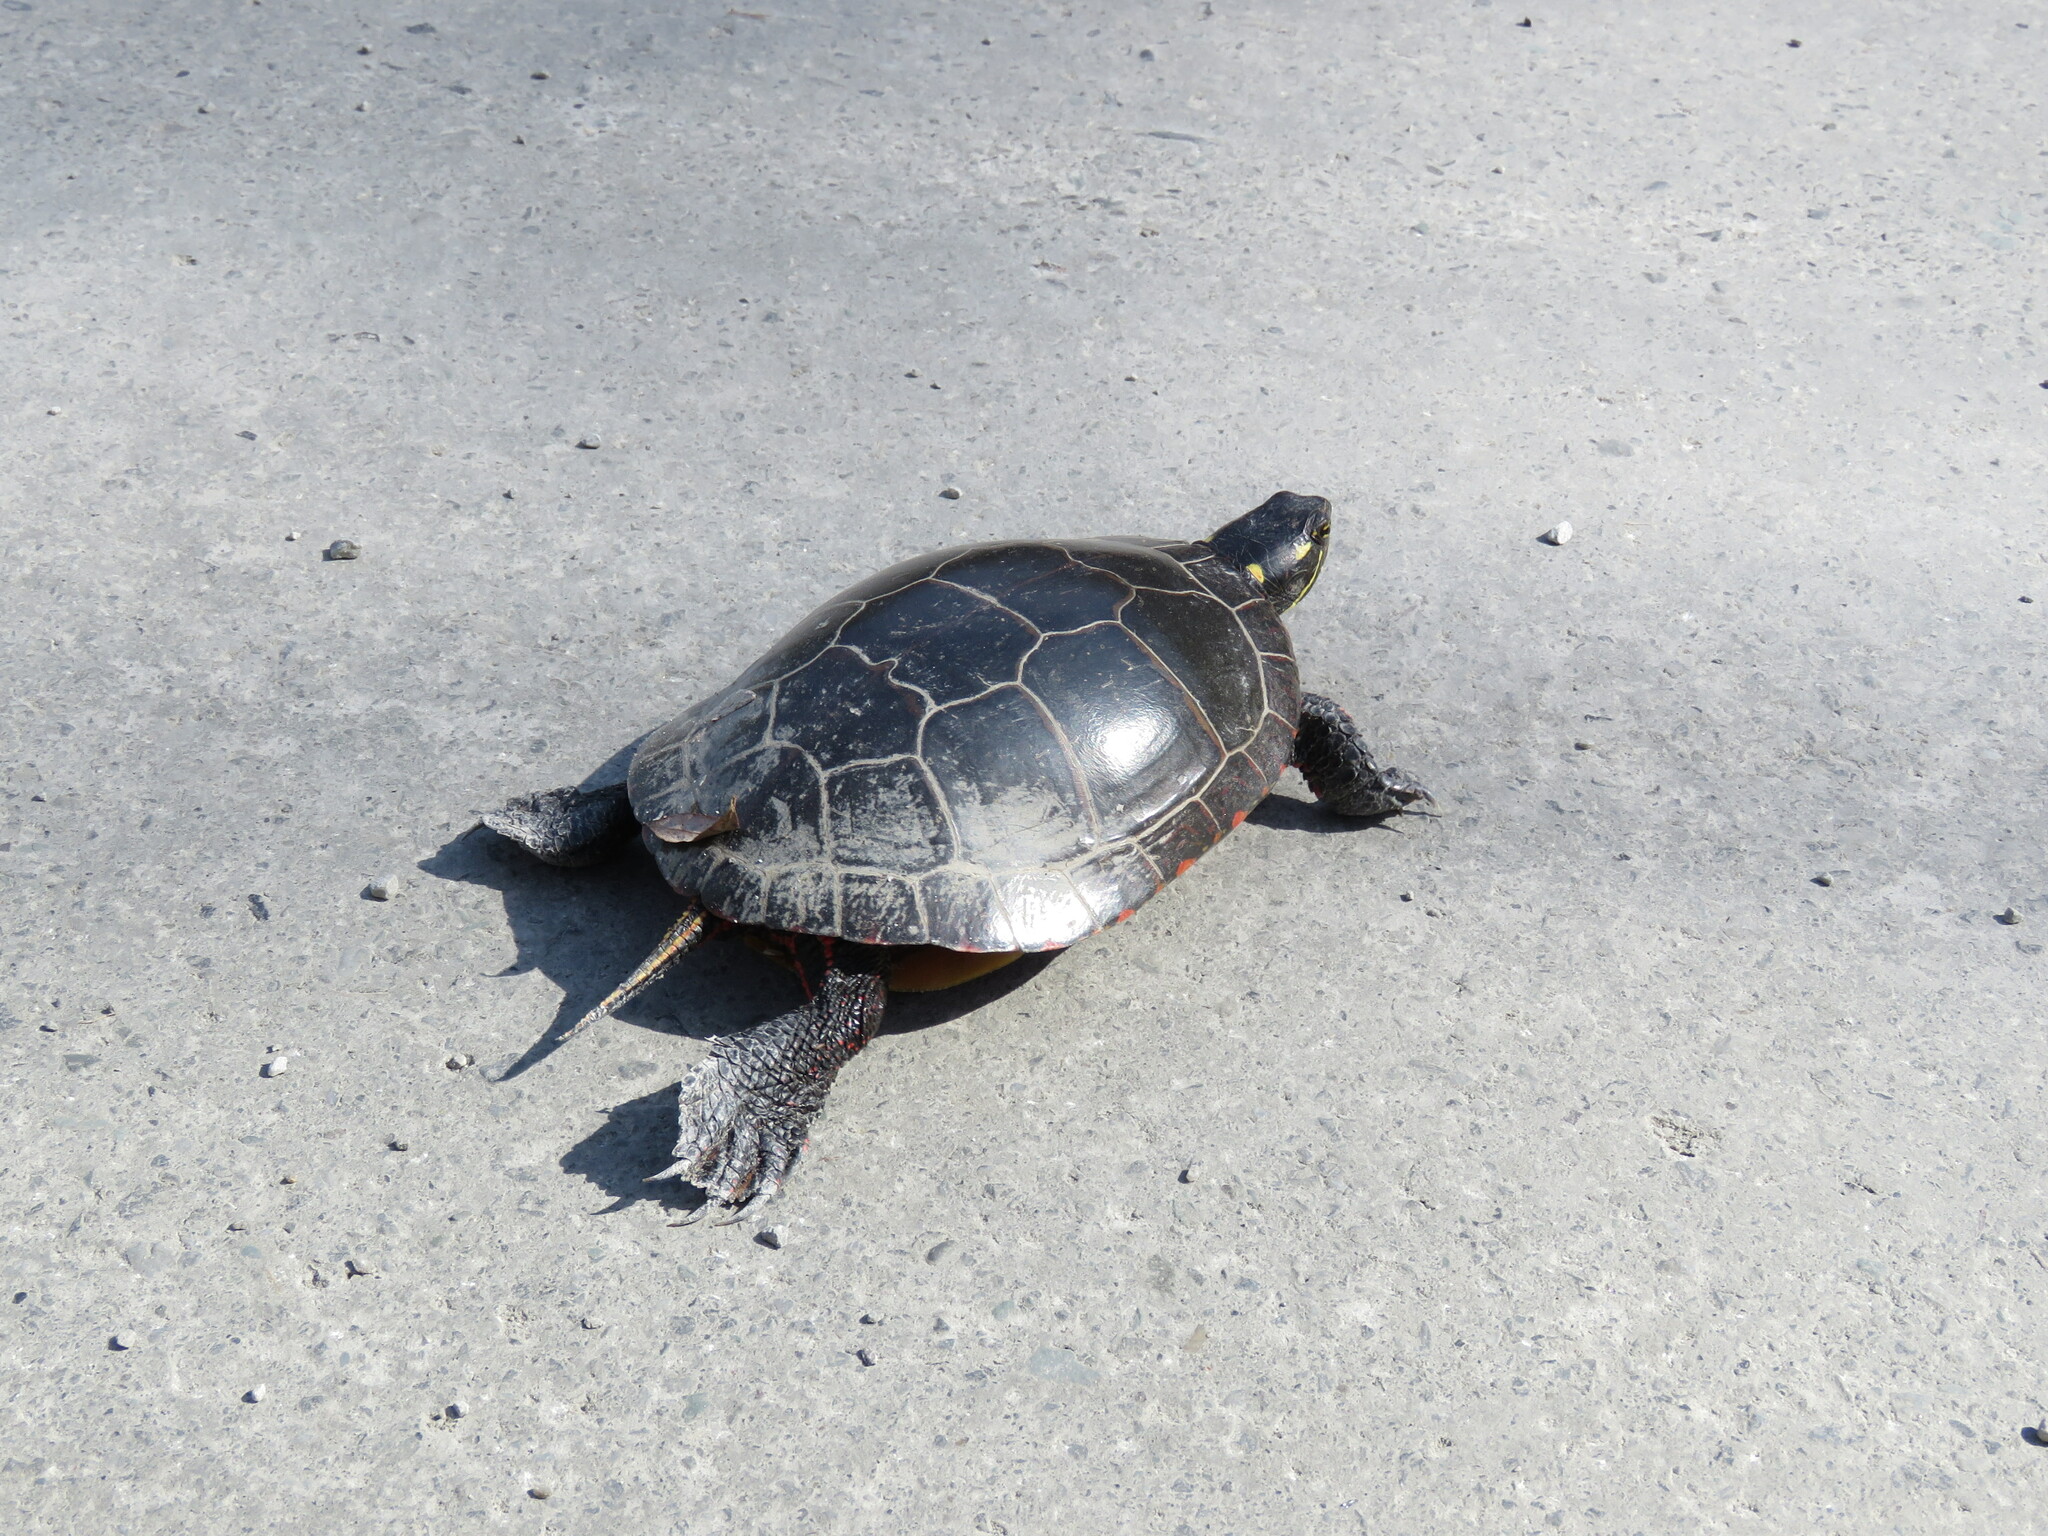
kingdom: Animalia
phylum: Chordata
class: Testudines
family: Emydidae
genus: Chrysemys
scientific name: Chrysemys picta
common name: Painted turtle
